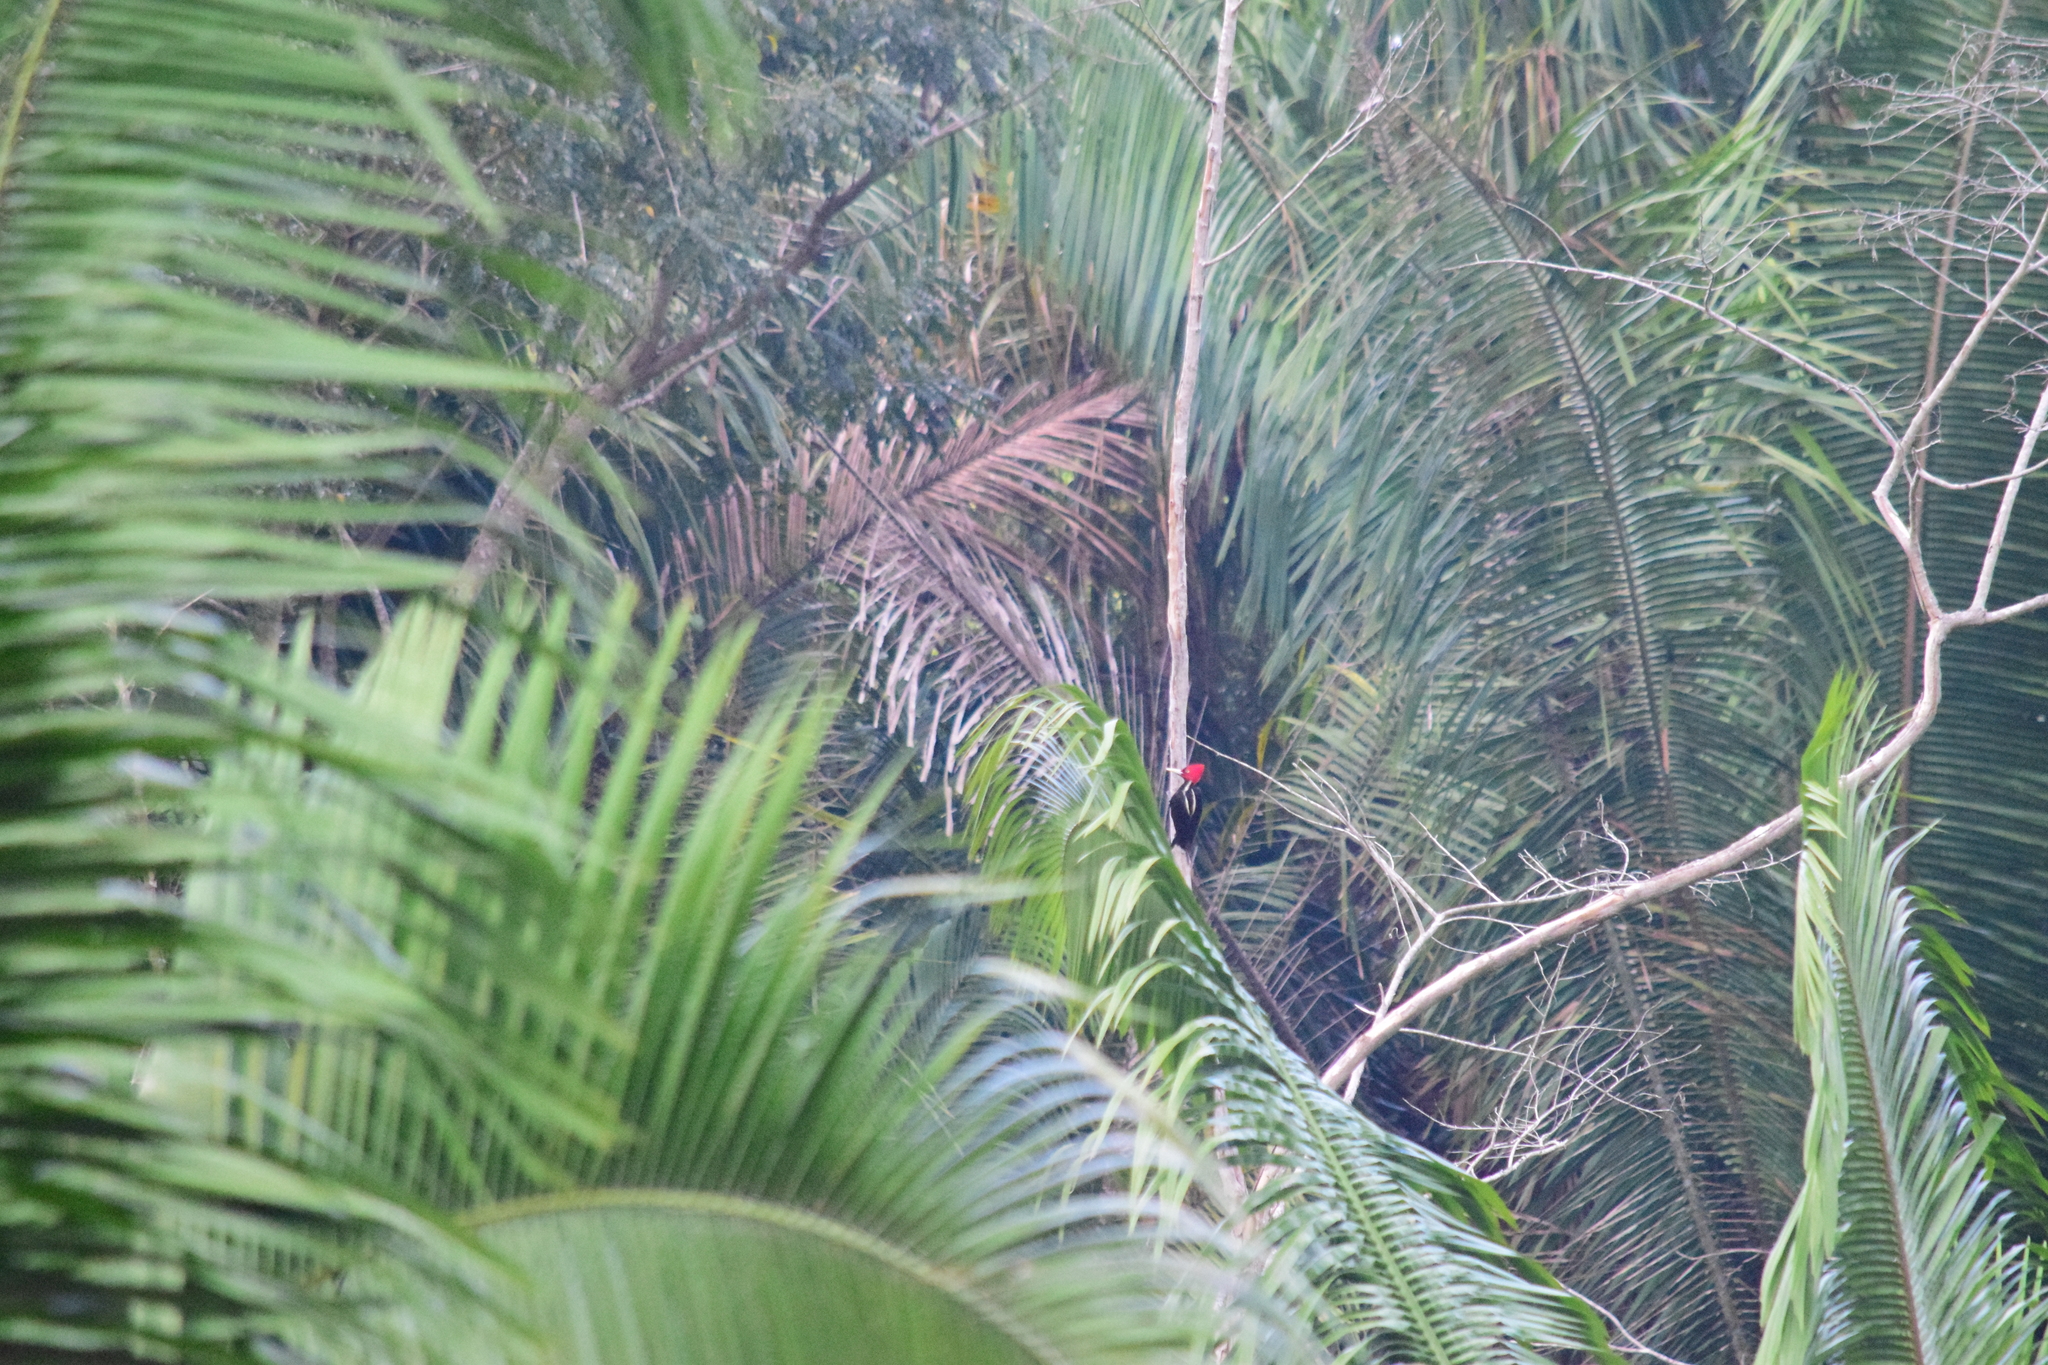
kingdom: Animalia
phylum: Chordata
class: Aves
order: Piciformes
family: Picidae
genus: Campephilus
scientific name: Campephilus guatemalensis
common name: Pale-billed woodpecker
